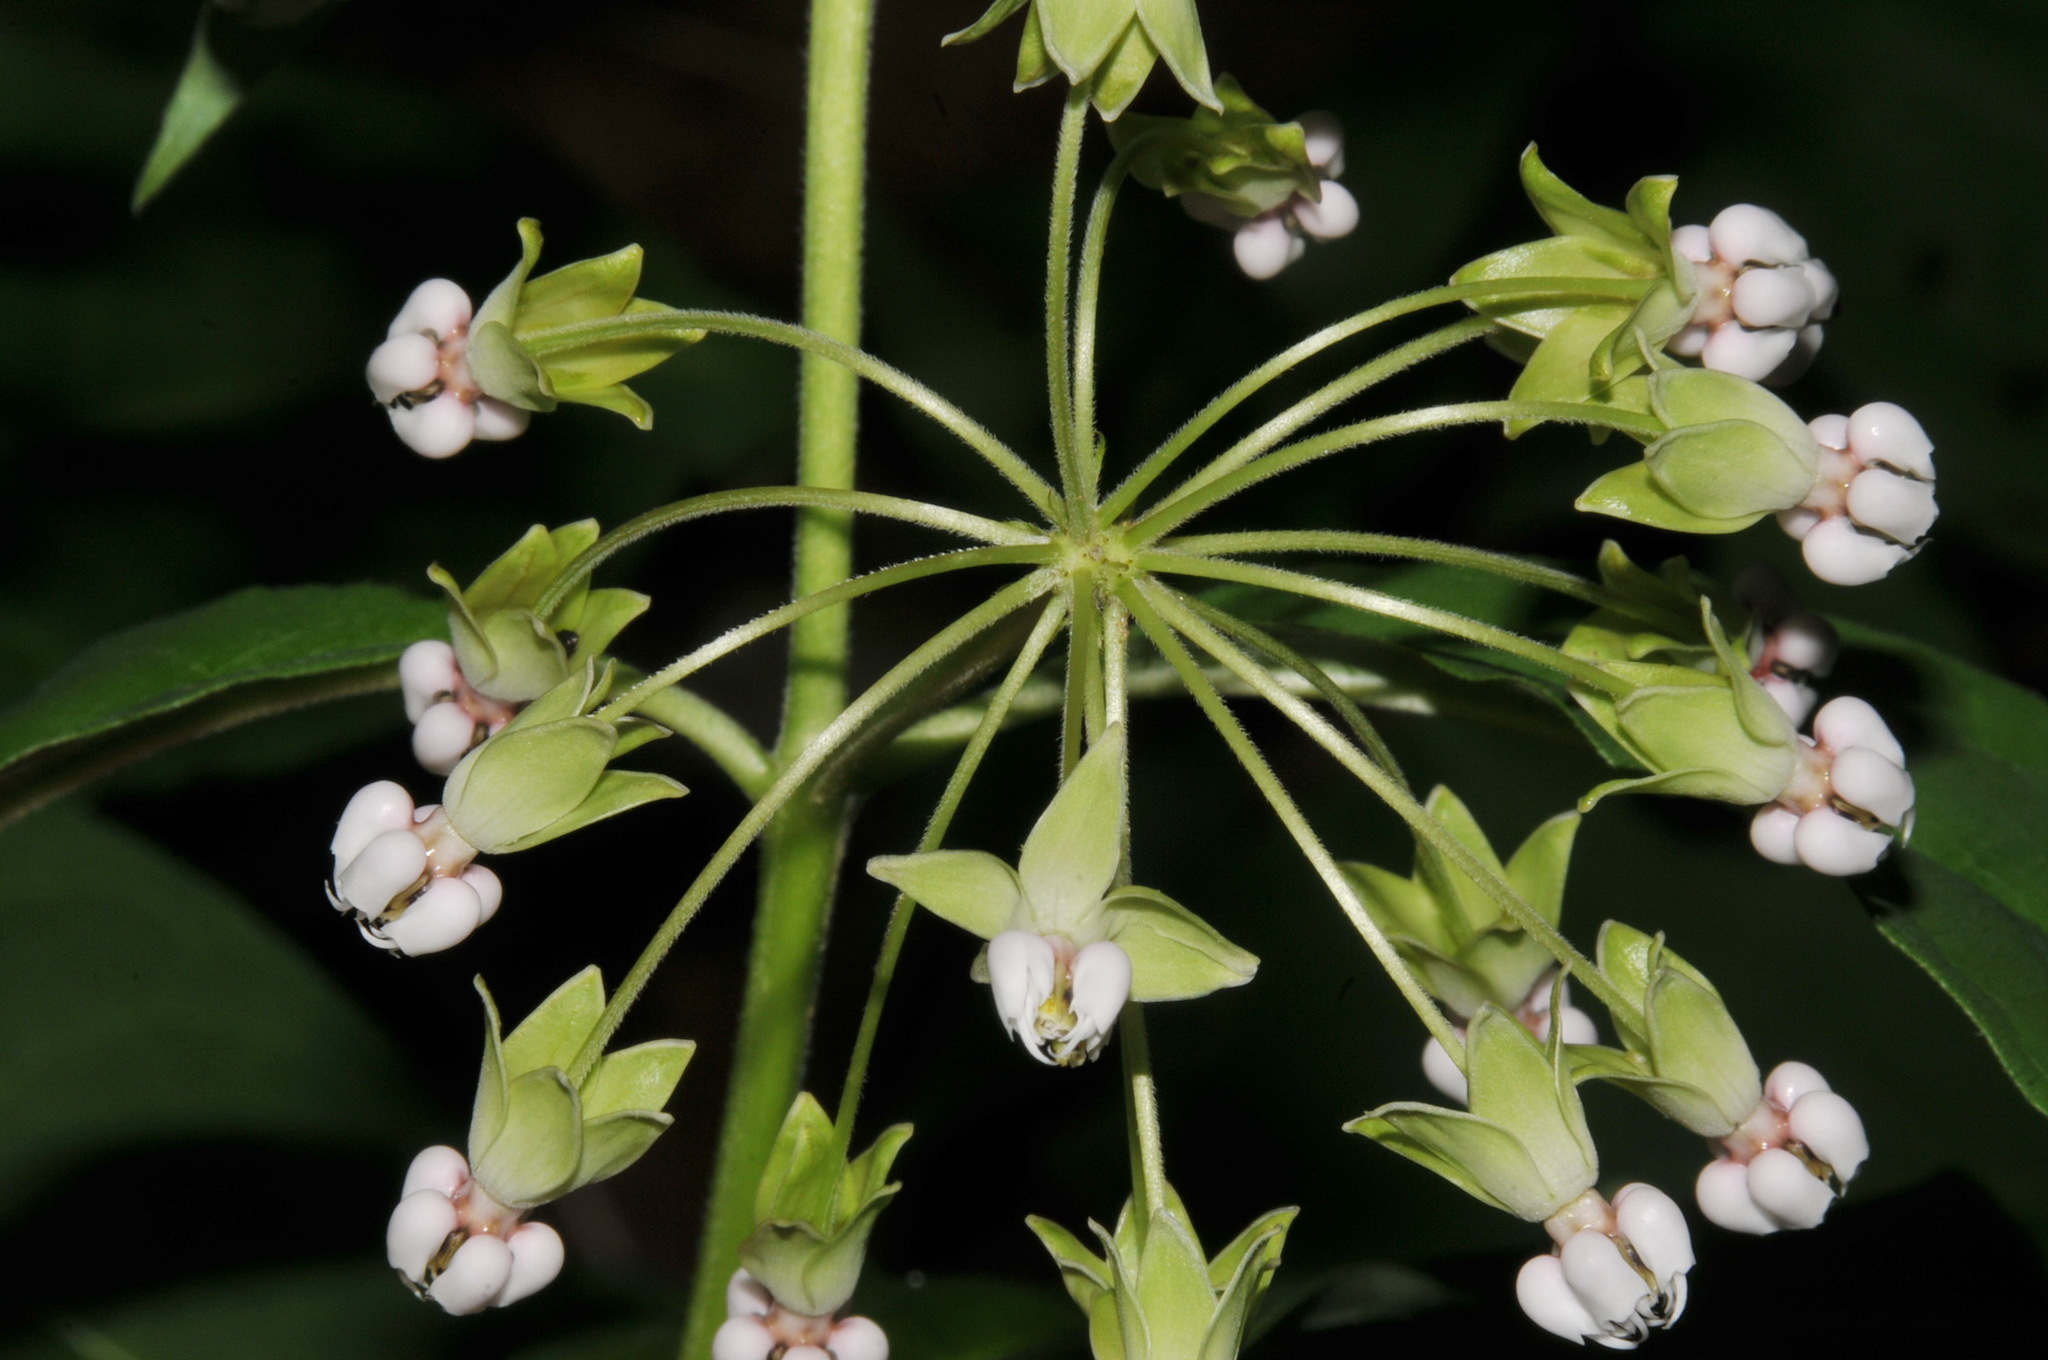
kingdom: Plantae
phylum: Tracheophyta
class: Magnoliopsida
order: Gentianales
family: Apocynaceae
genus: Asclepias
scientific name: Asclepias exaltata
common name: Poke milkweed
